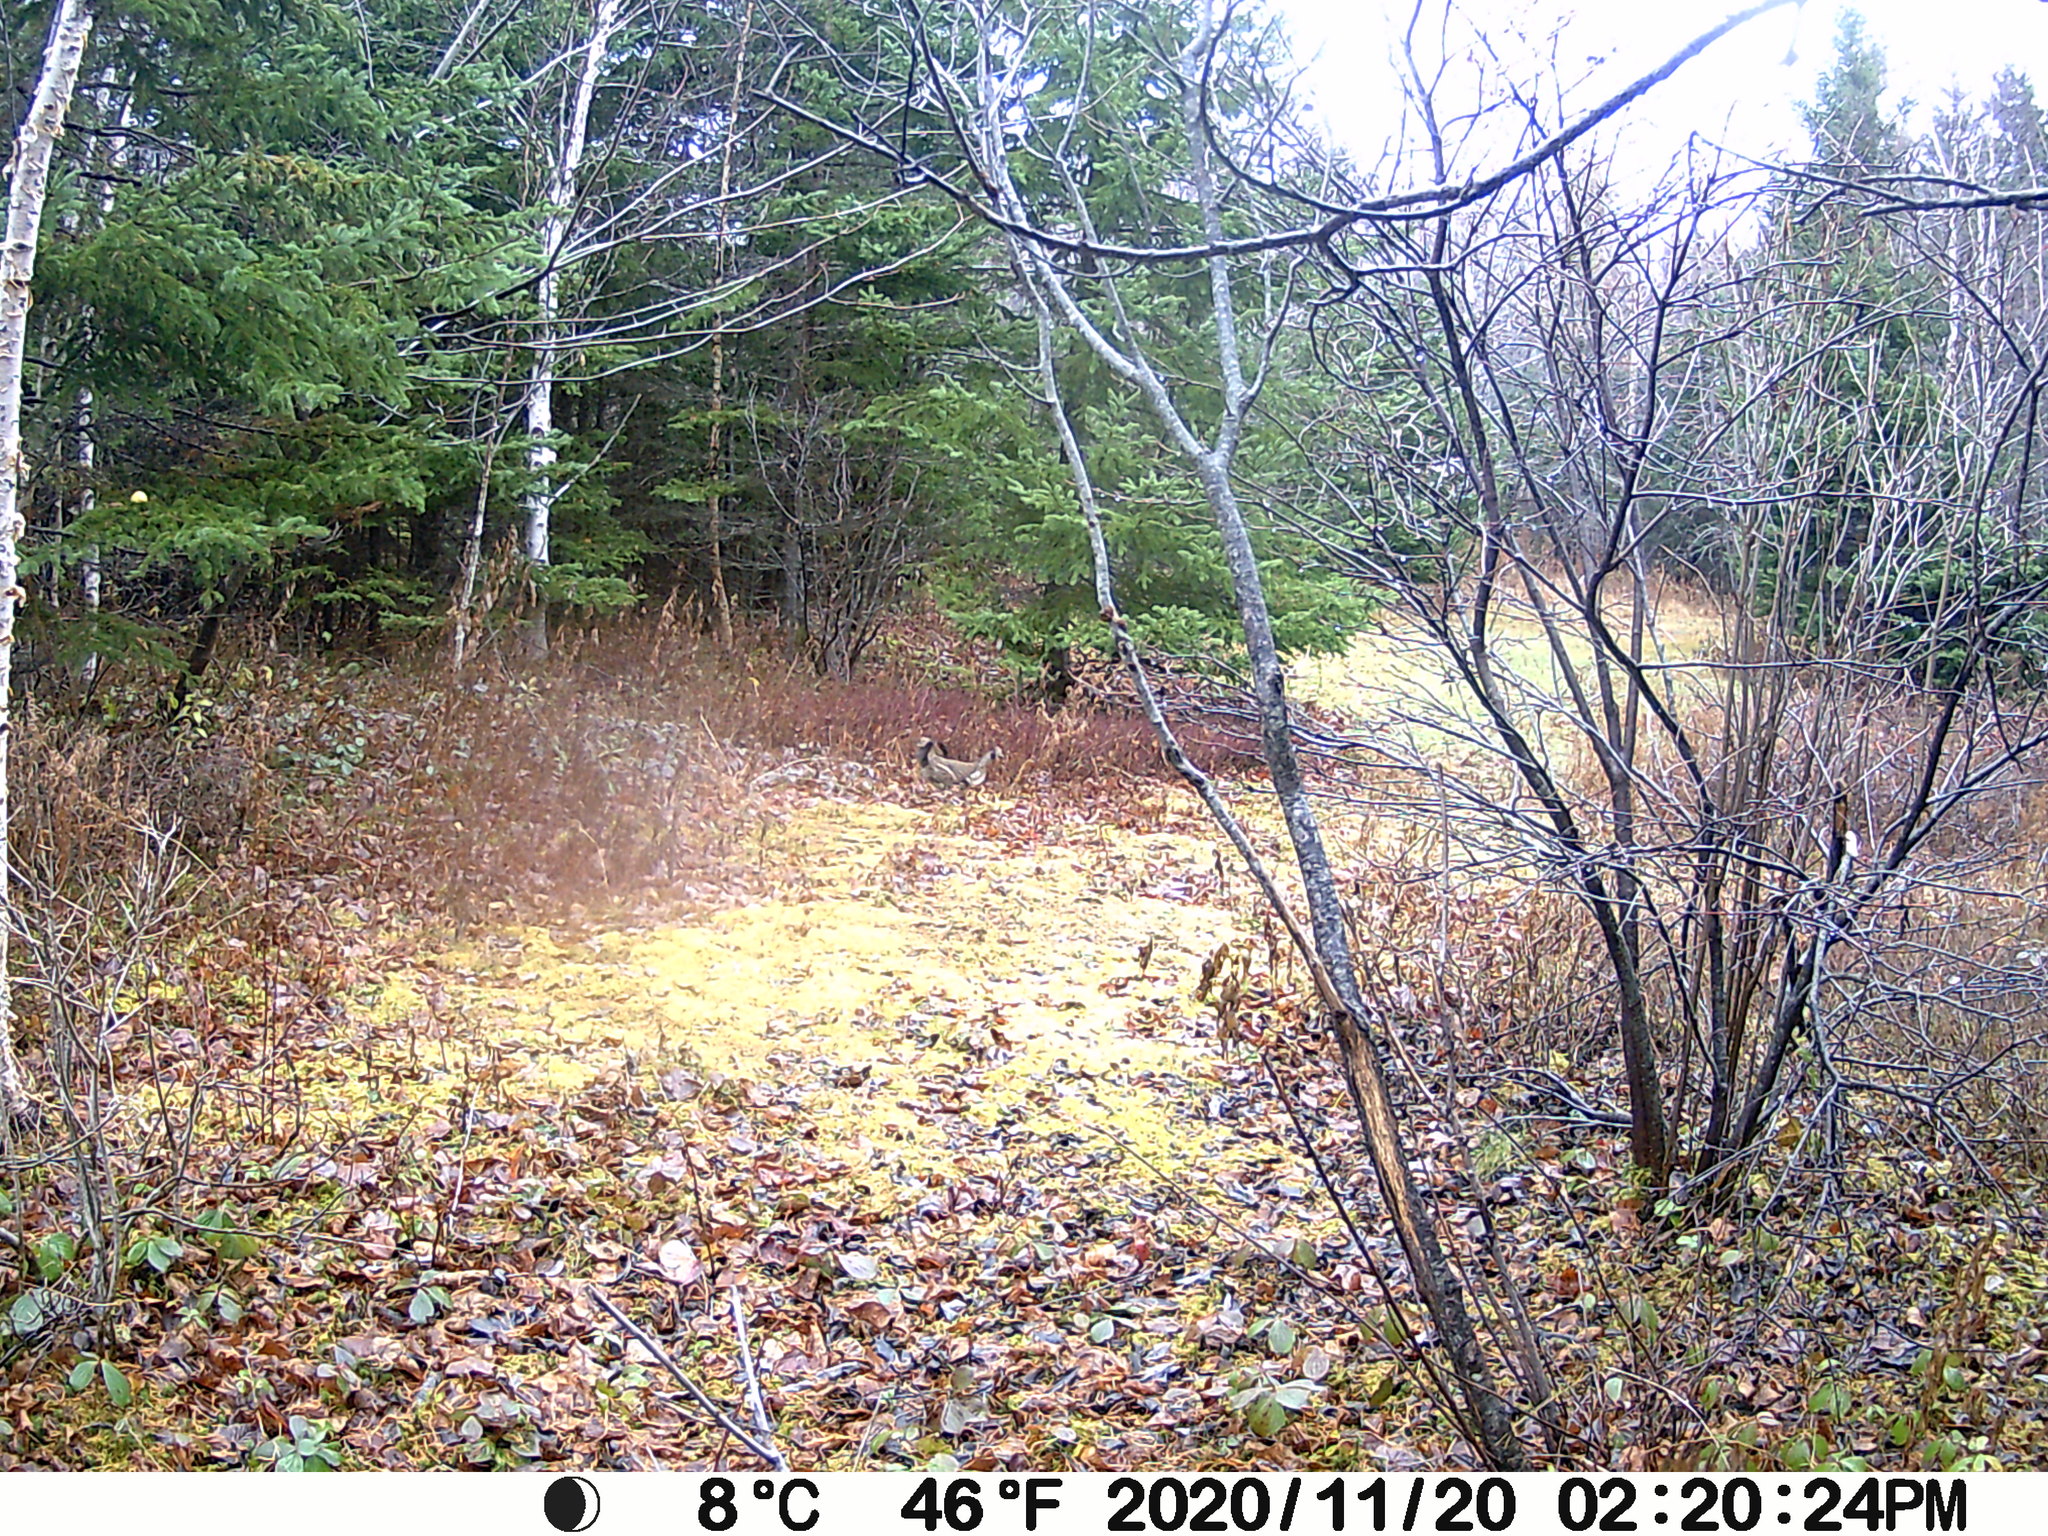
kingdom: Animalia
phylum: Chordata
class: Aves
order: Galliformes
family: Phasianidae
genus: Bonasa
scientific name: Bonasa umbellus
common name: Ruffed grouse
